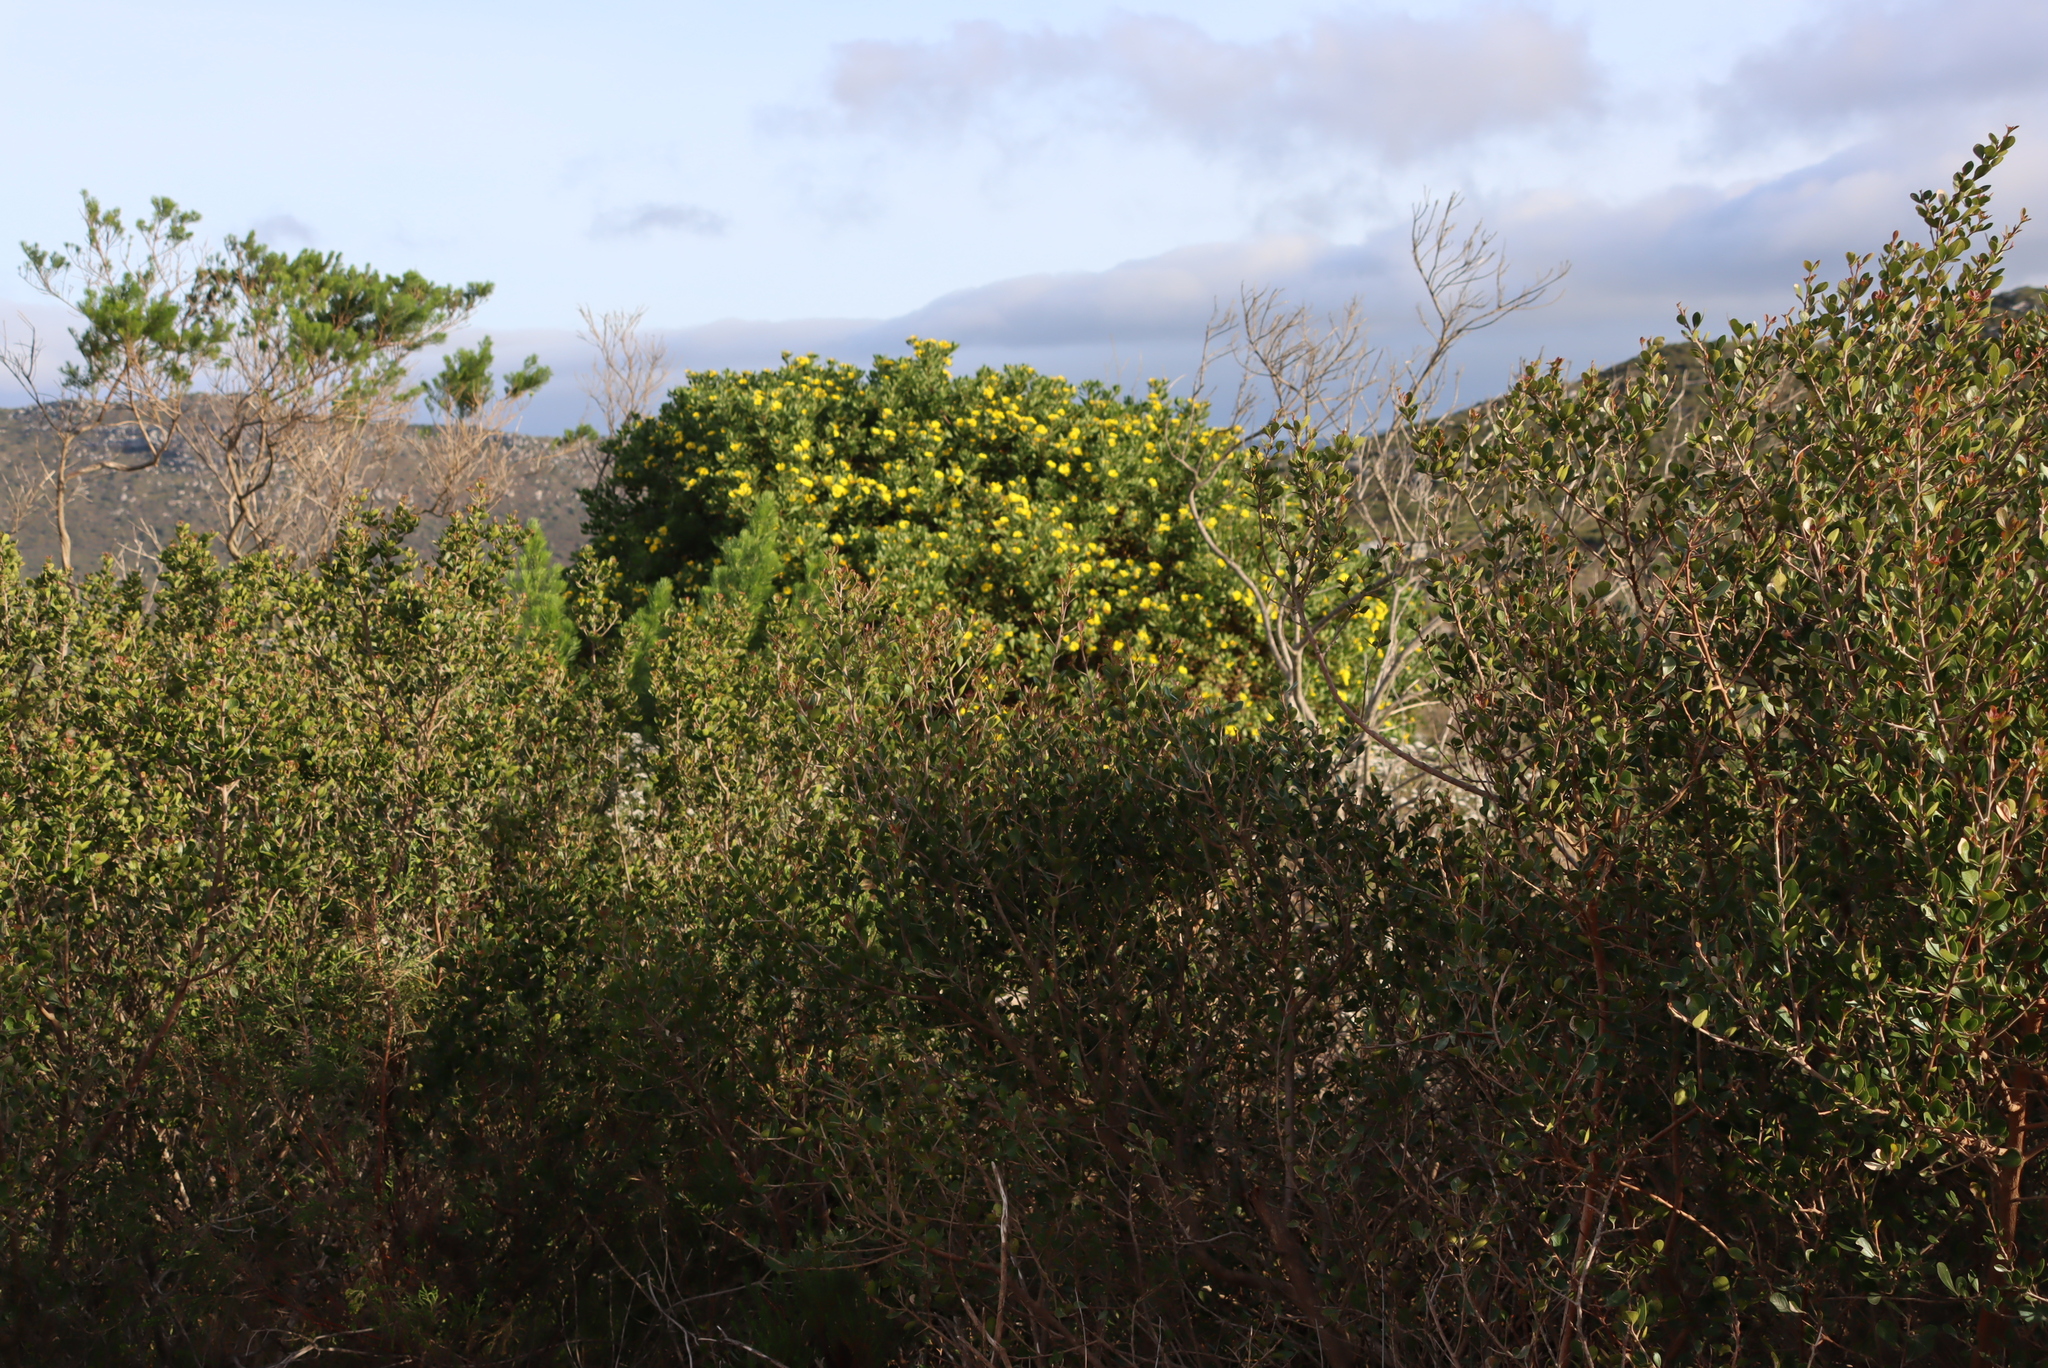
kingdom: Plantae
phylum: Tracheophyta
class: Magnoliopsida
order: Asterales
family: Asteraceae
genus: Osteospermum
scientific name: Osteospermum moniliferum
